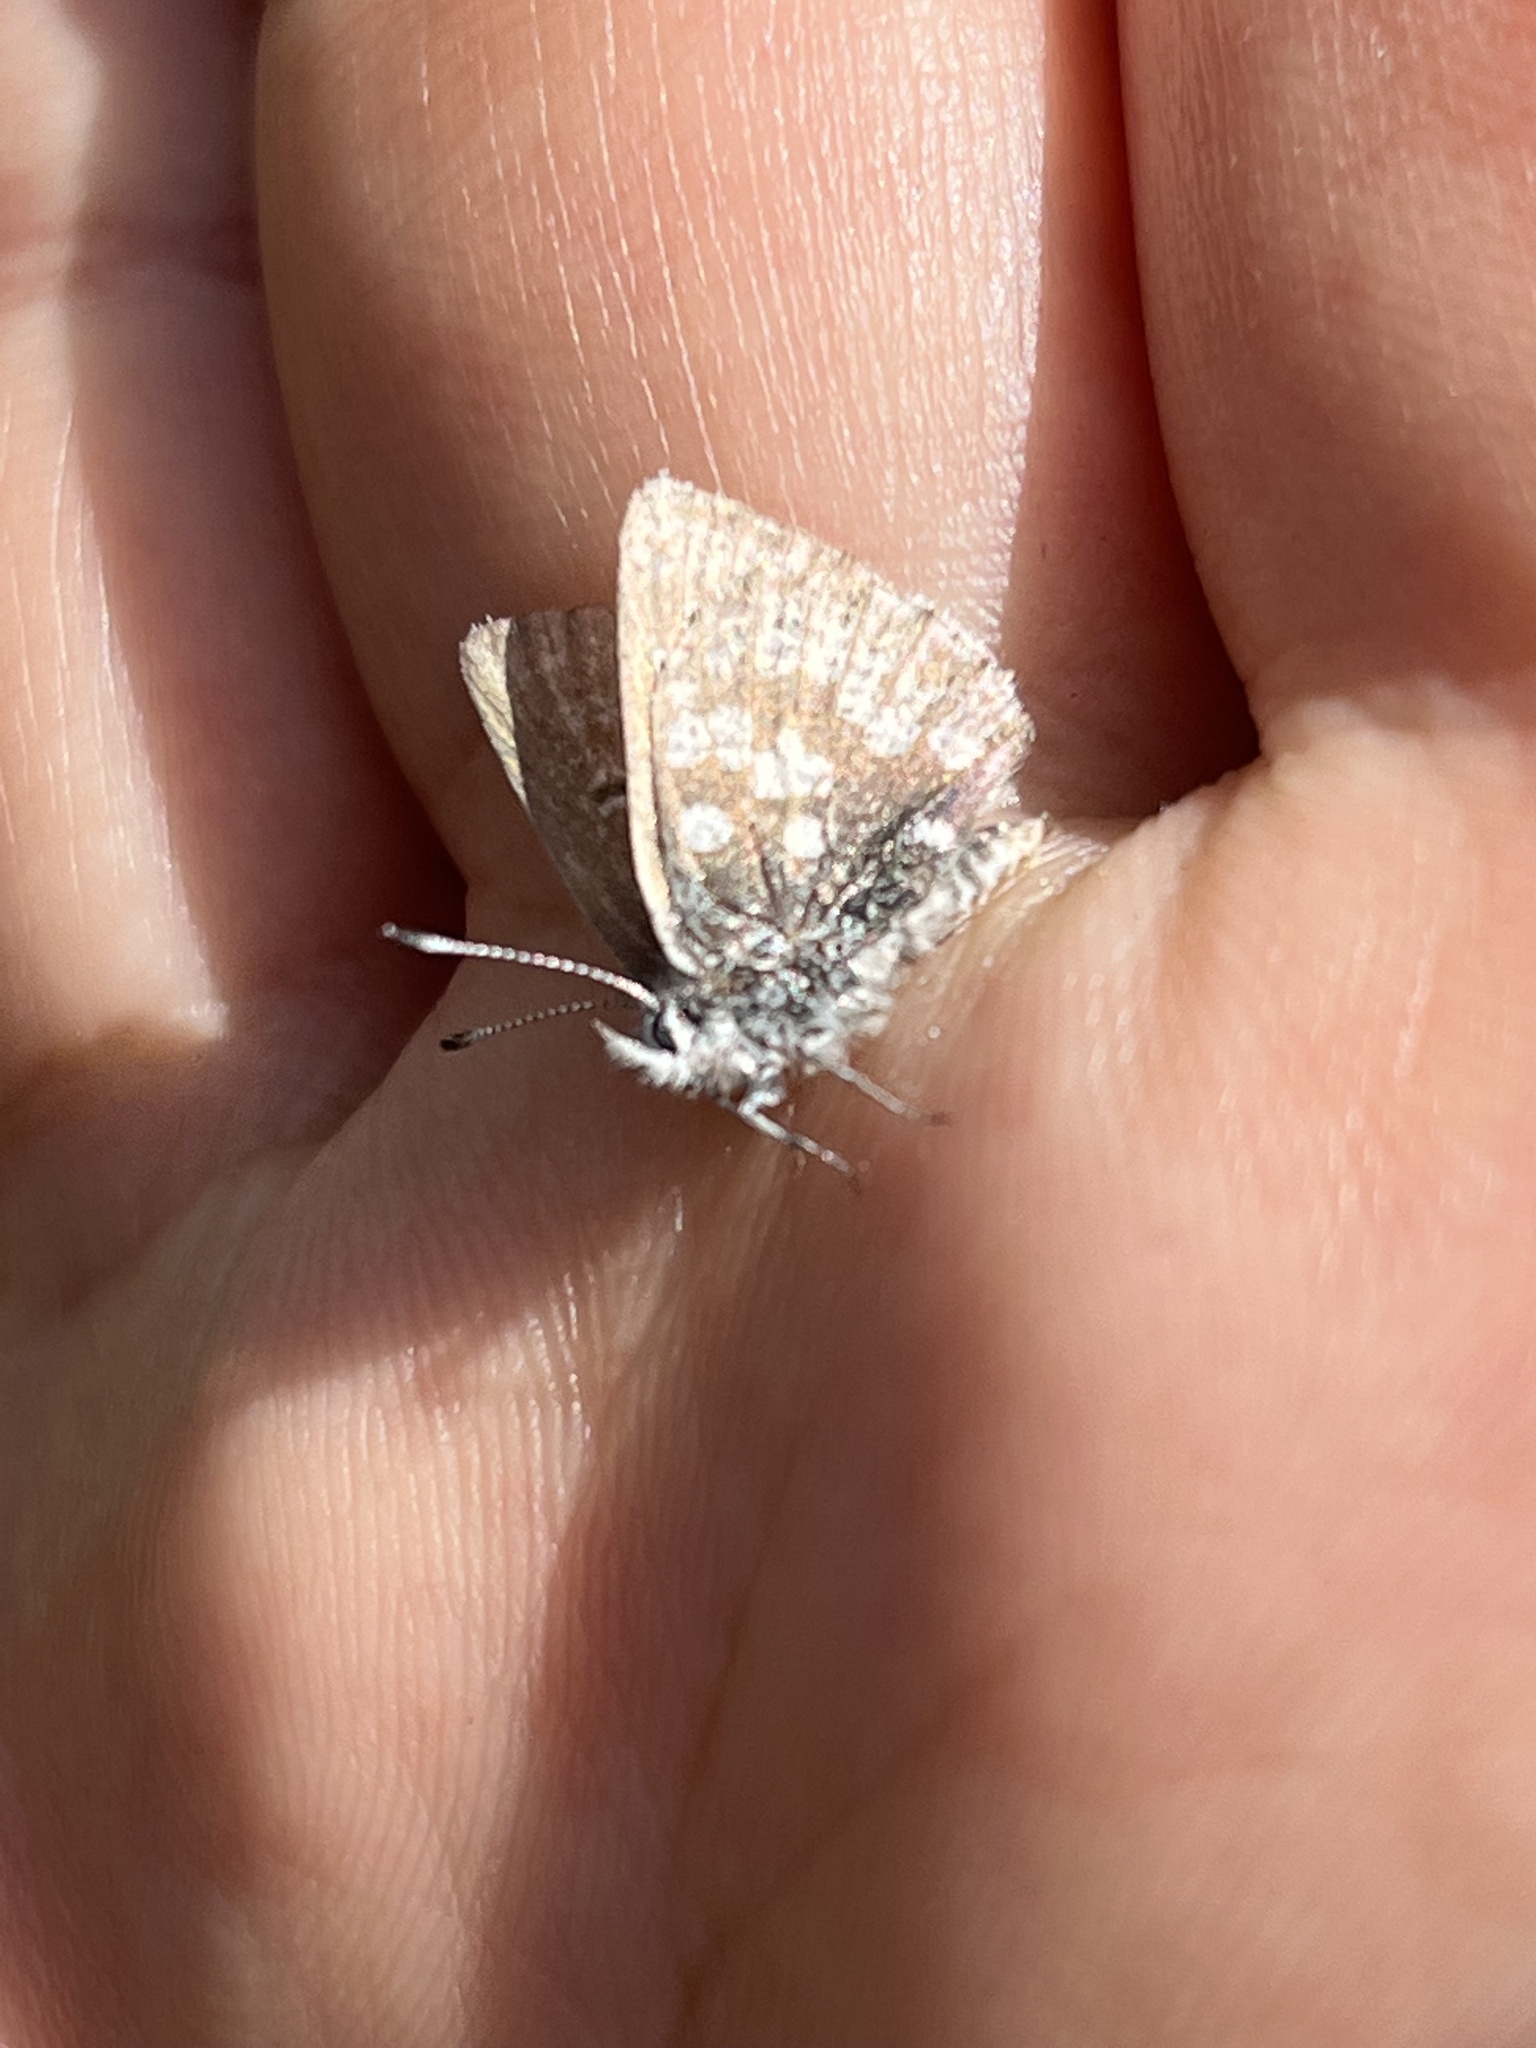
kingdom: Animalia
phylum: Arthropoda
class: Insecta
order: Lepidoptera
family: Lycaenidae
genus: Agriades
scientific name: Agriades glandon
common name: Glandon blue
